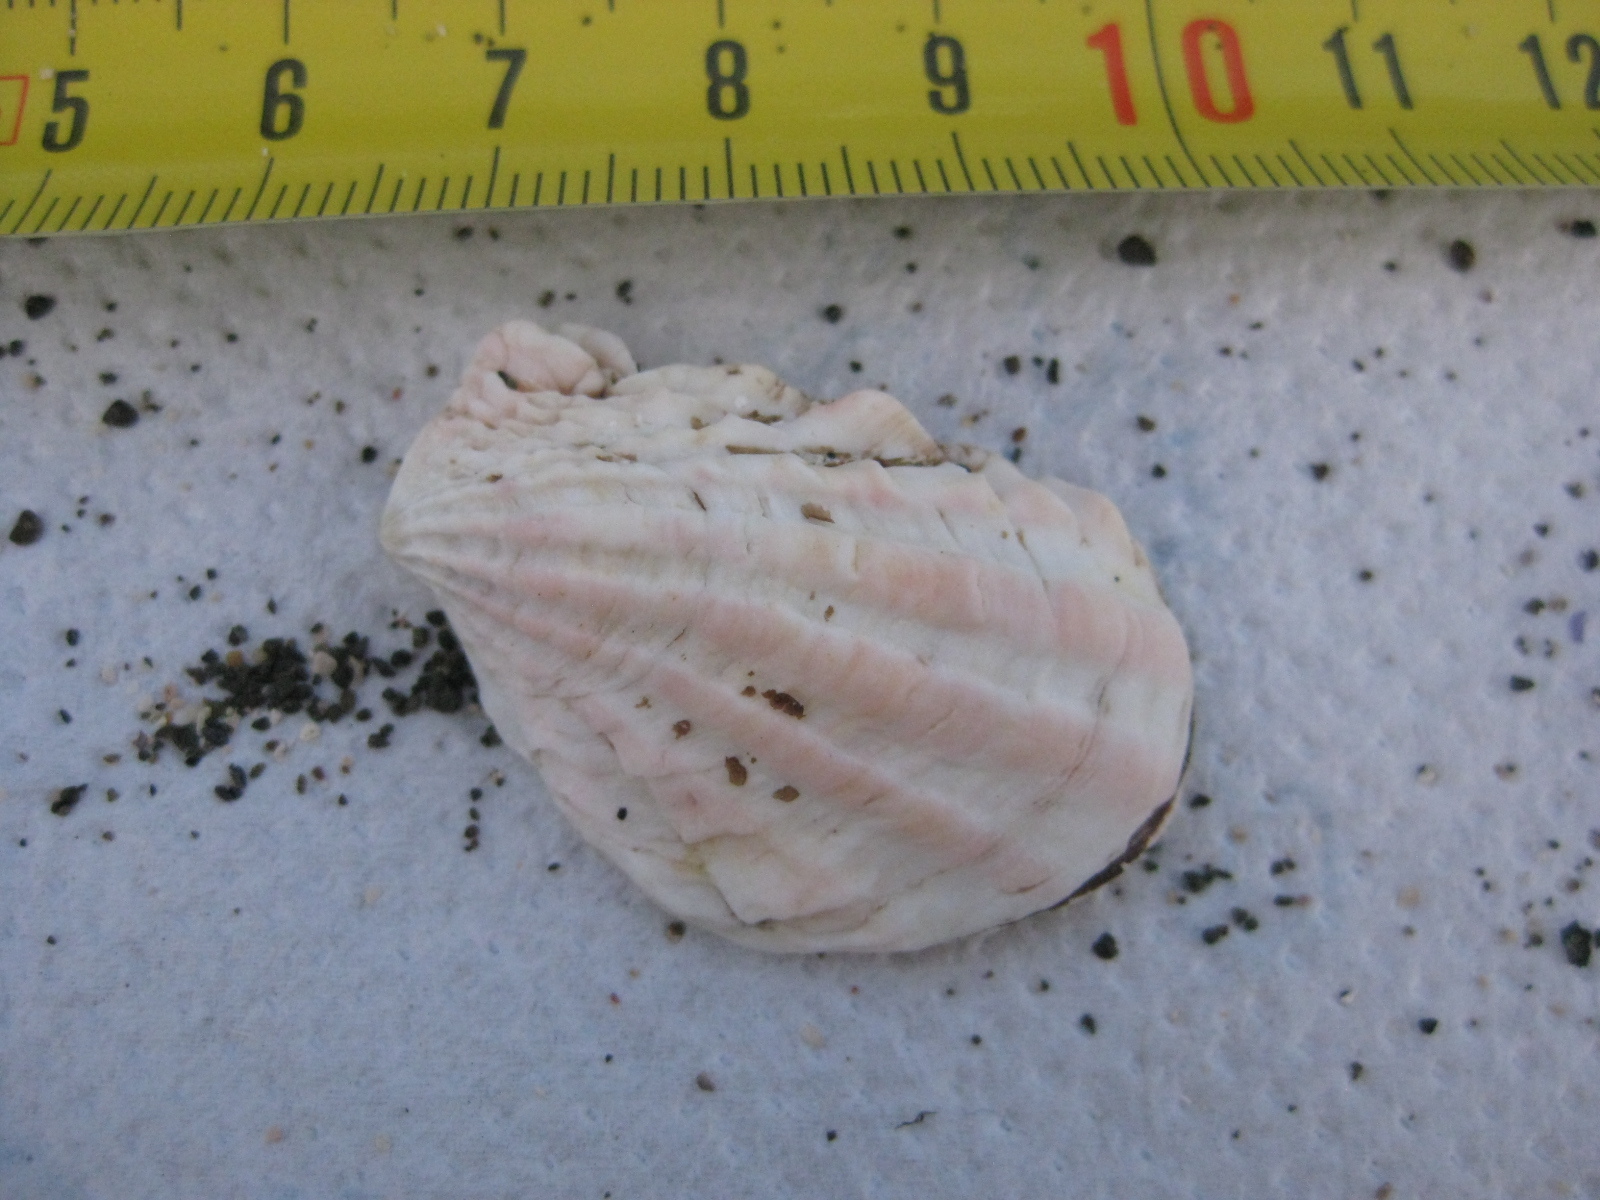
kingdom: Animalia
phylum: Mollusca
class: Bivalvia
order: Carditida
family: Carditidae
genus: Cardita
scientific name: Cardita distorta
